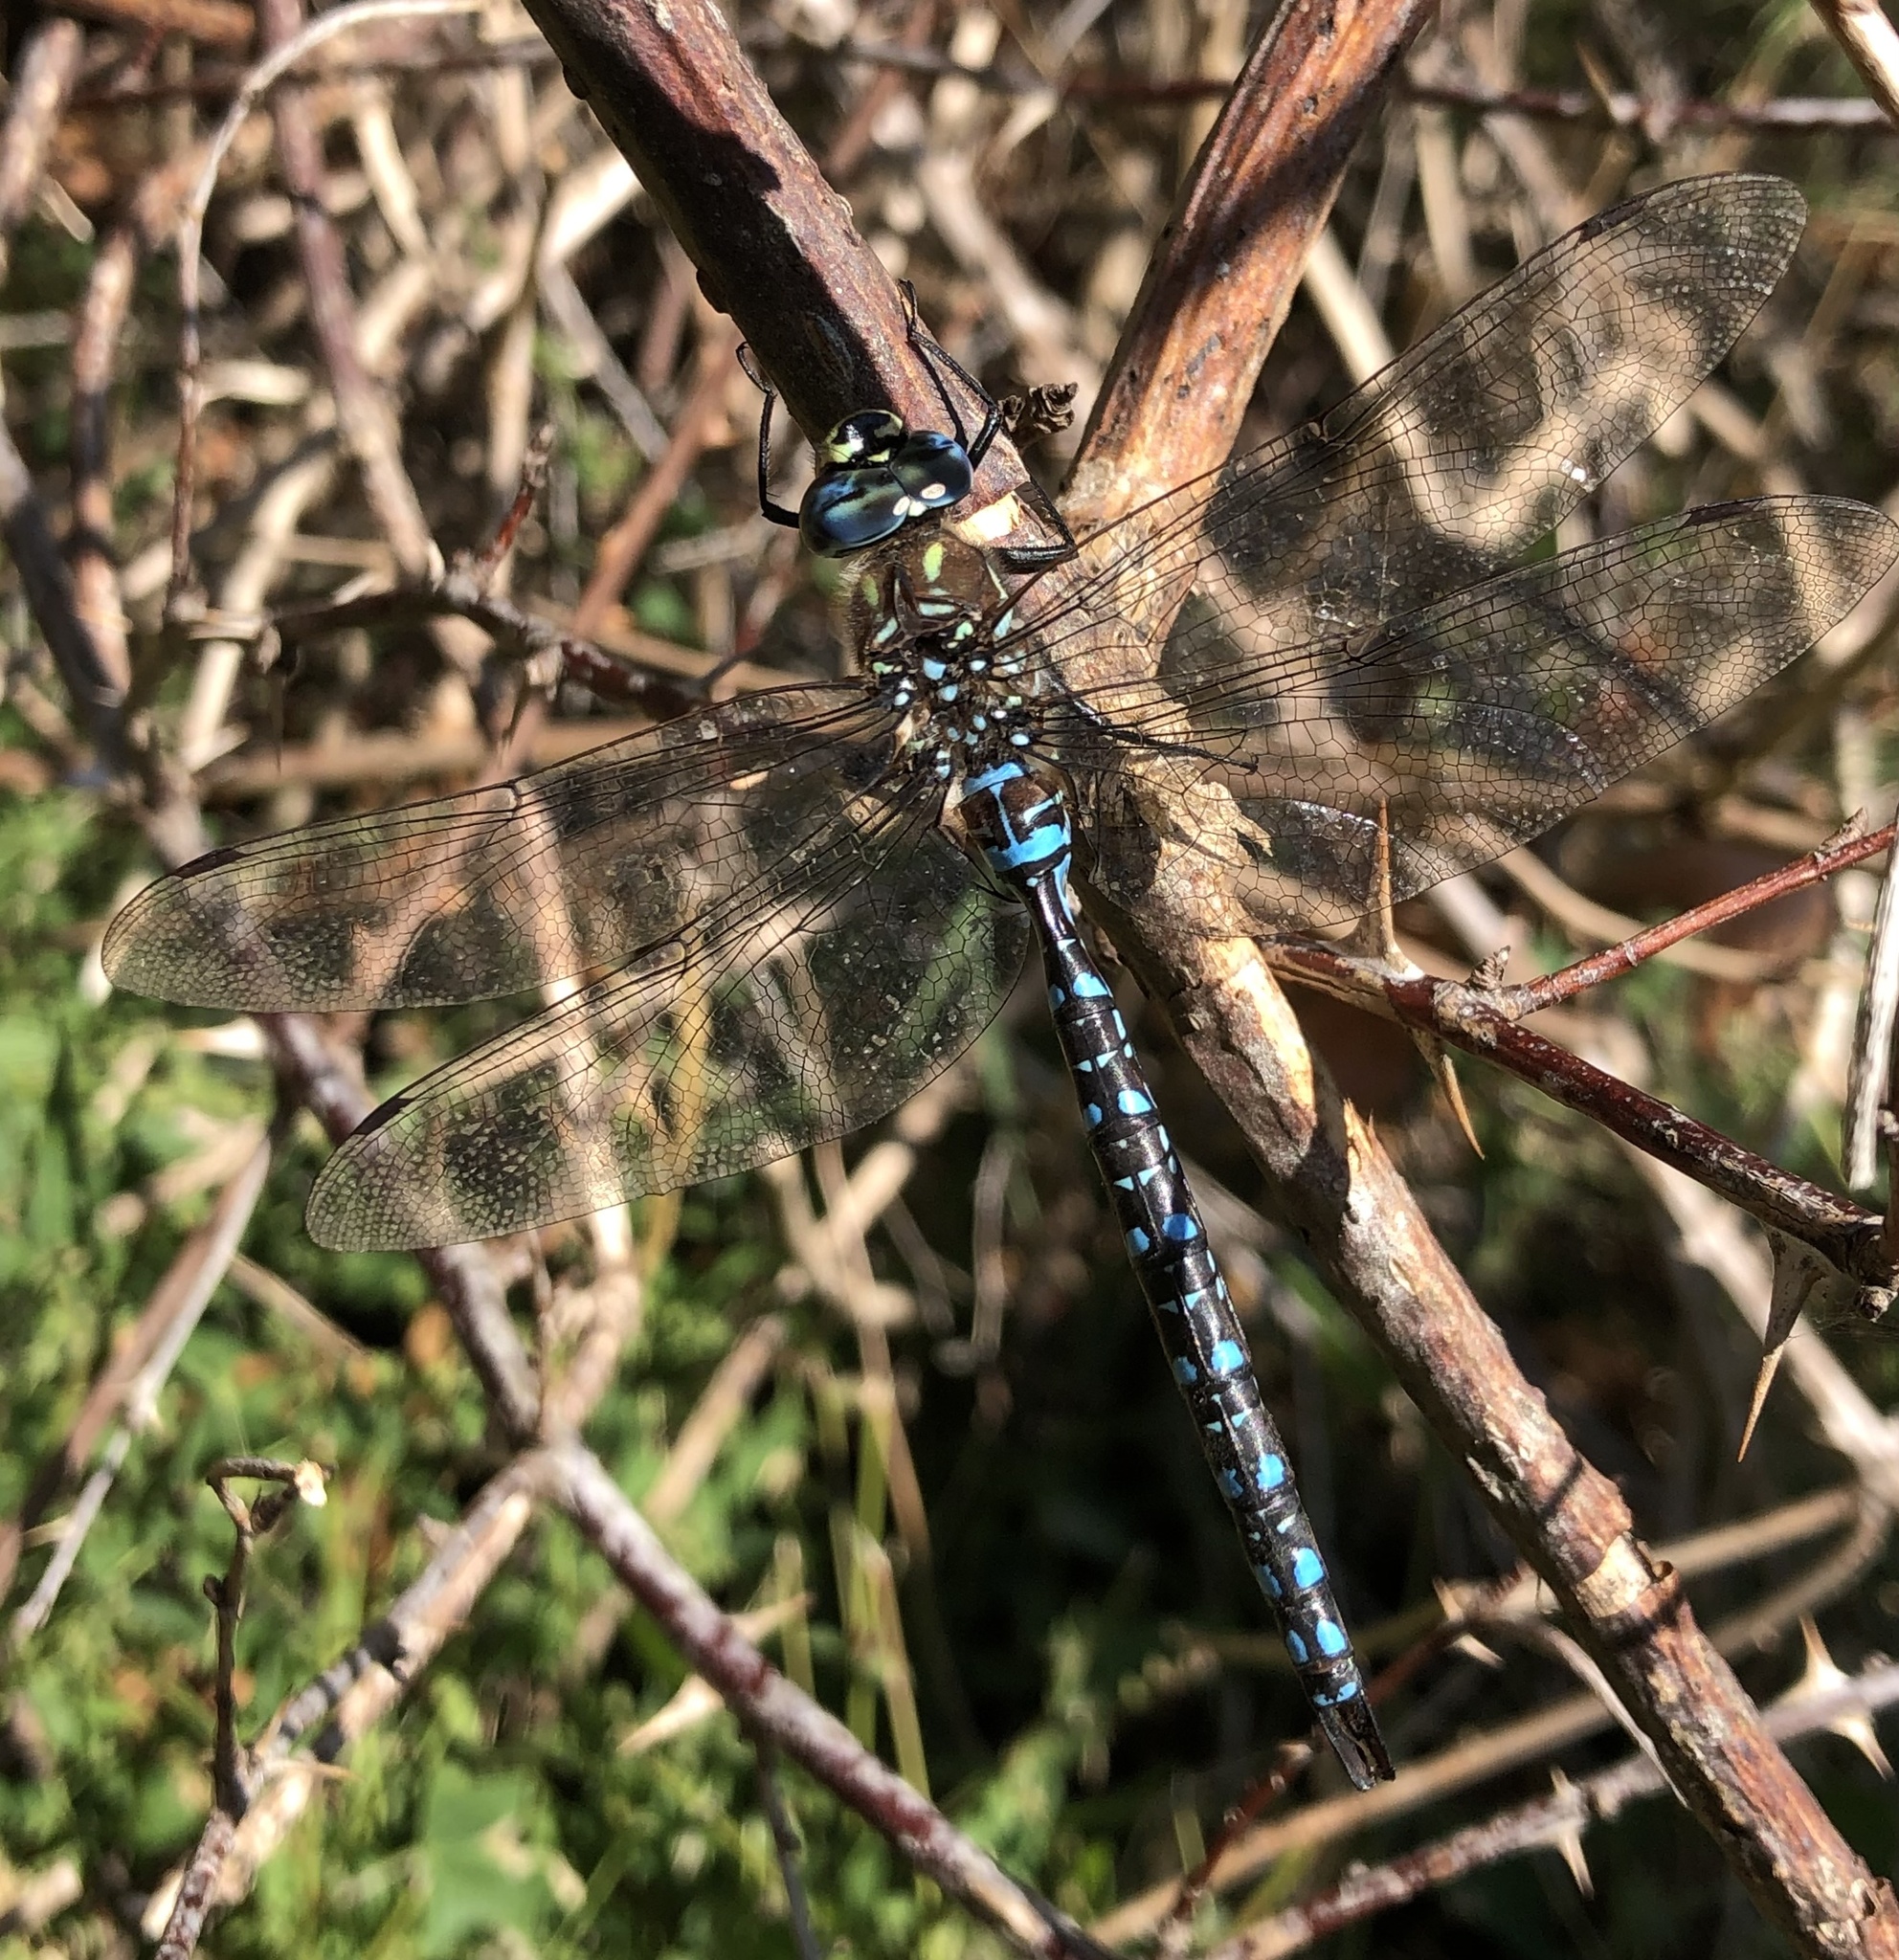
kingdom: Animalia
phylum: Arthropoda
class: Insecta
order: Odonata
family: Aeshnidae
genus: Aeshna
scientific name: Aeshna palmata
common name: Paddle-tailed darner
